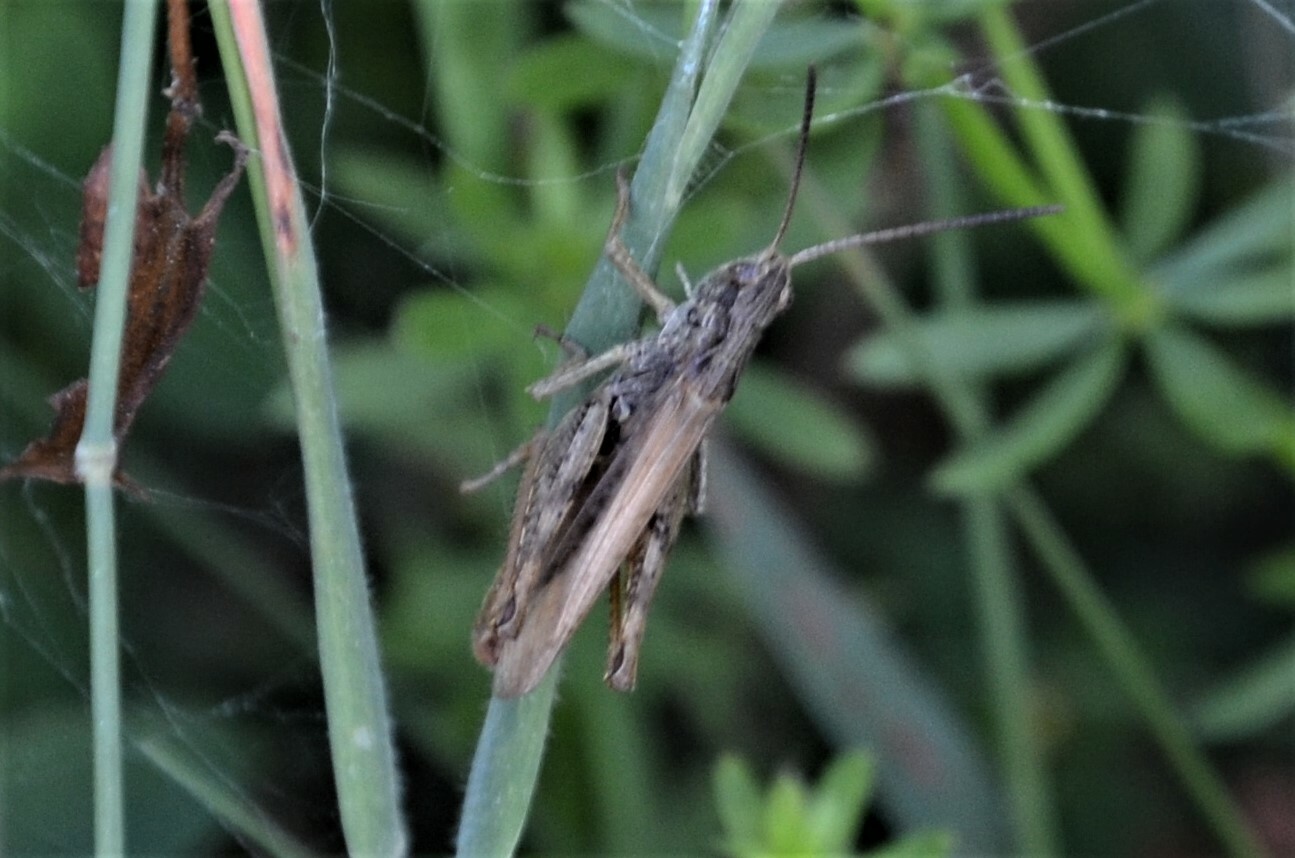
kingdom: Animalia
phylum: Arthropoda
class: Insecta
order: Orthoptera
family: Acrididae
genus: Chorthippus
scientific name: Chorthippus apricarius
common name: Upland field grasshopper
